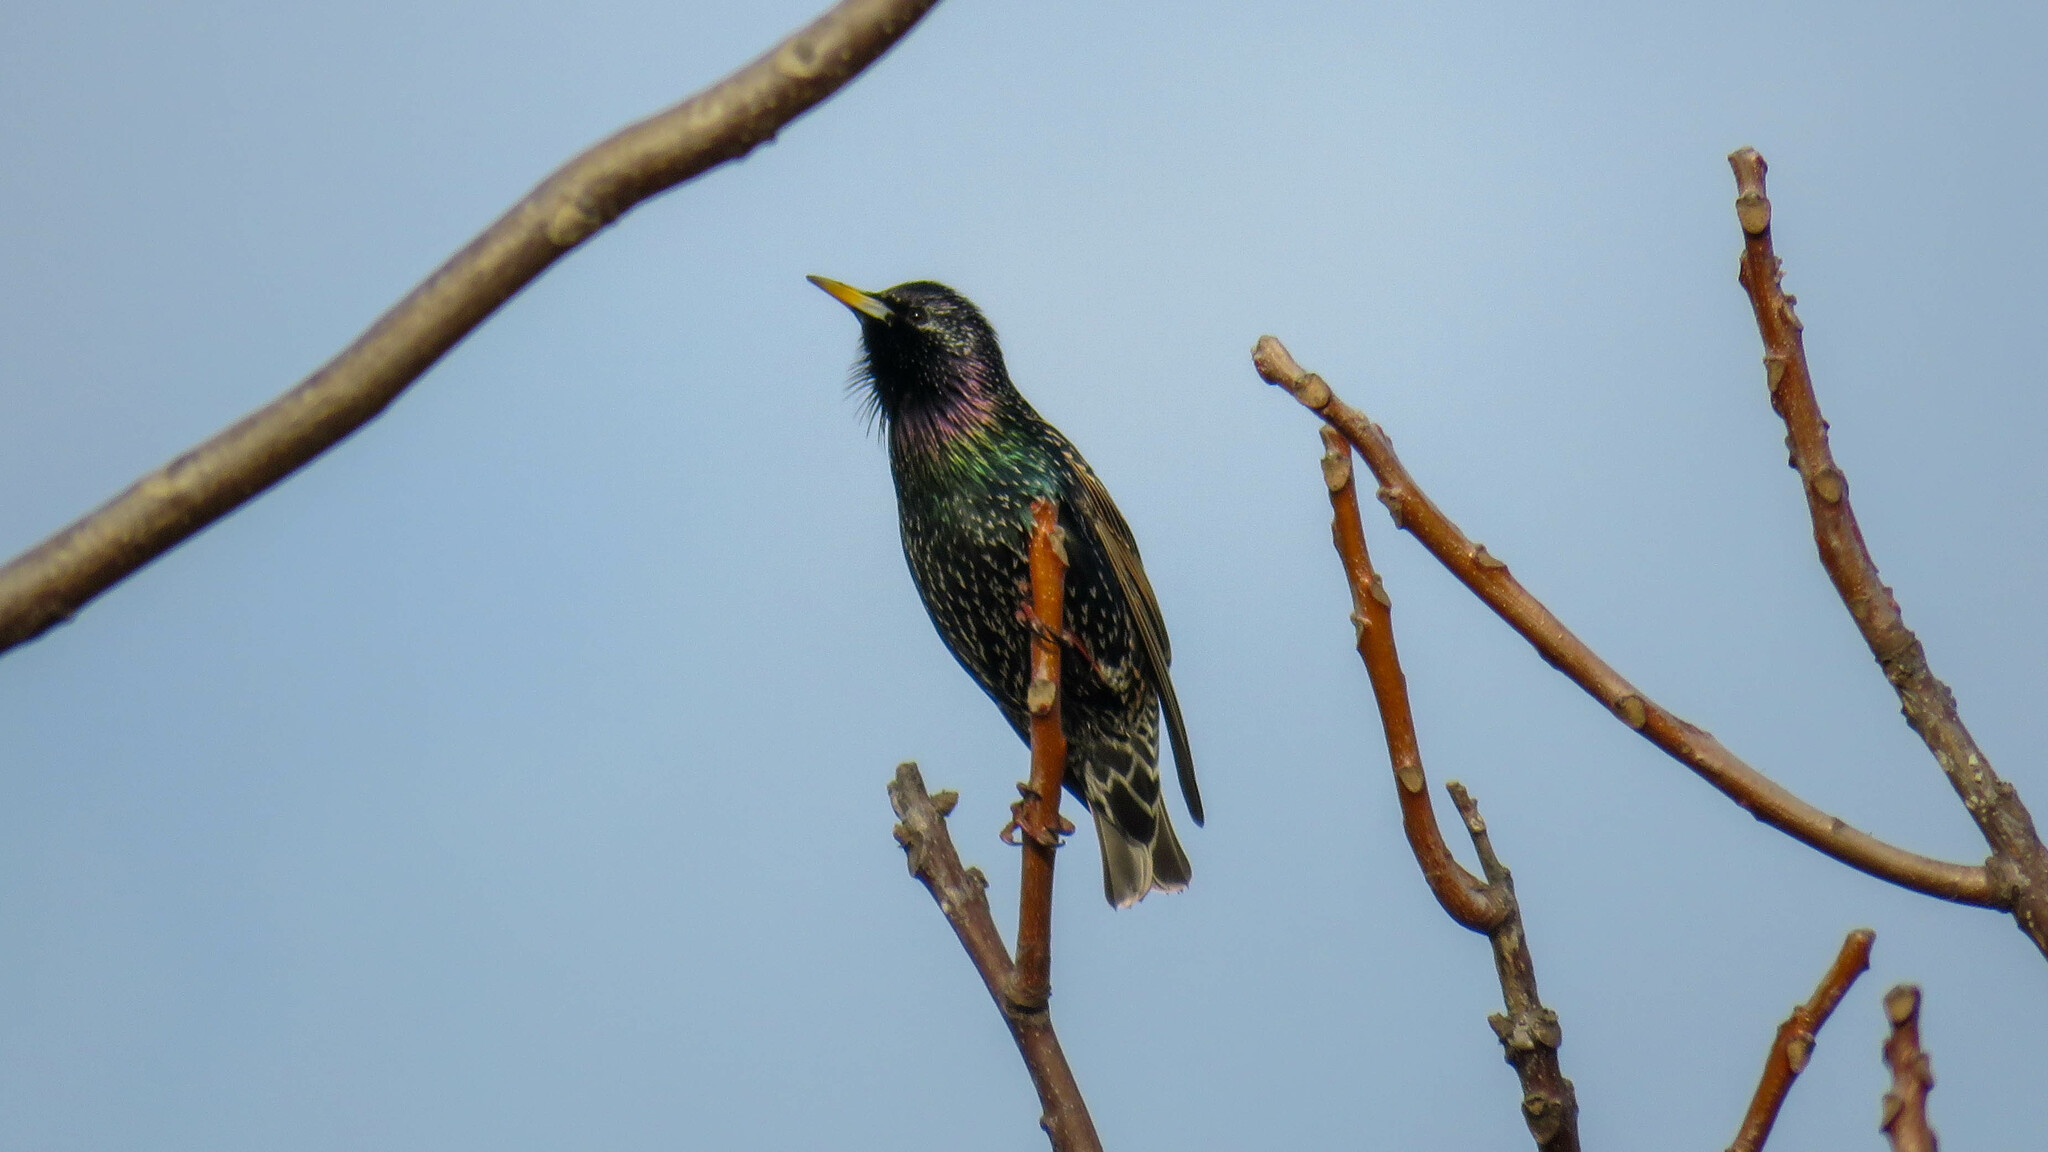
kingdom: Animalia
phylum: Chordata
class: Aves
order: Passeriformes
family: Sturnidae
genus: Sturnus
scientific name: Sturnus vulgaris
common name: Common starling
